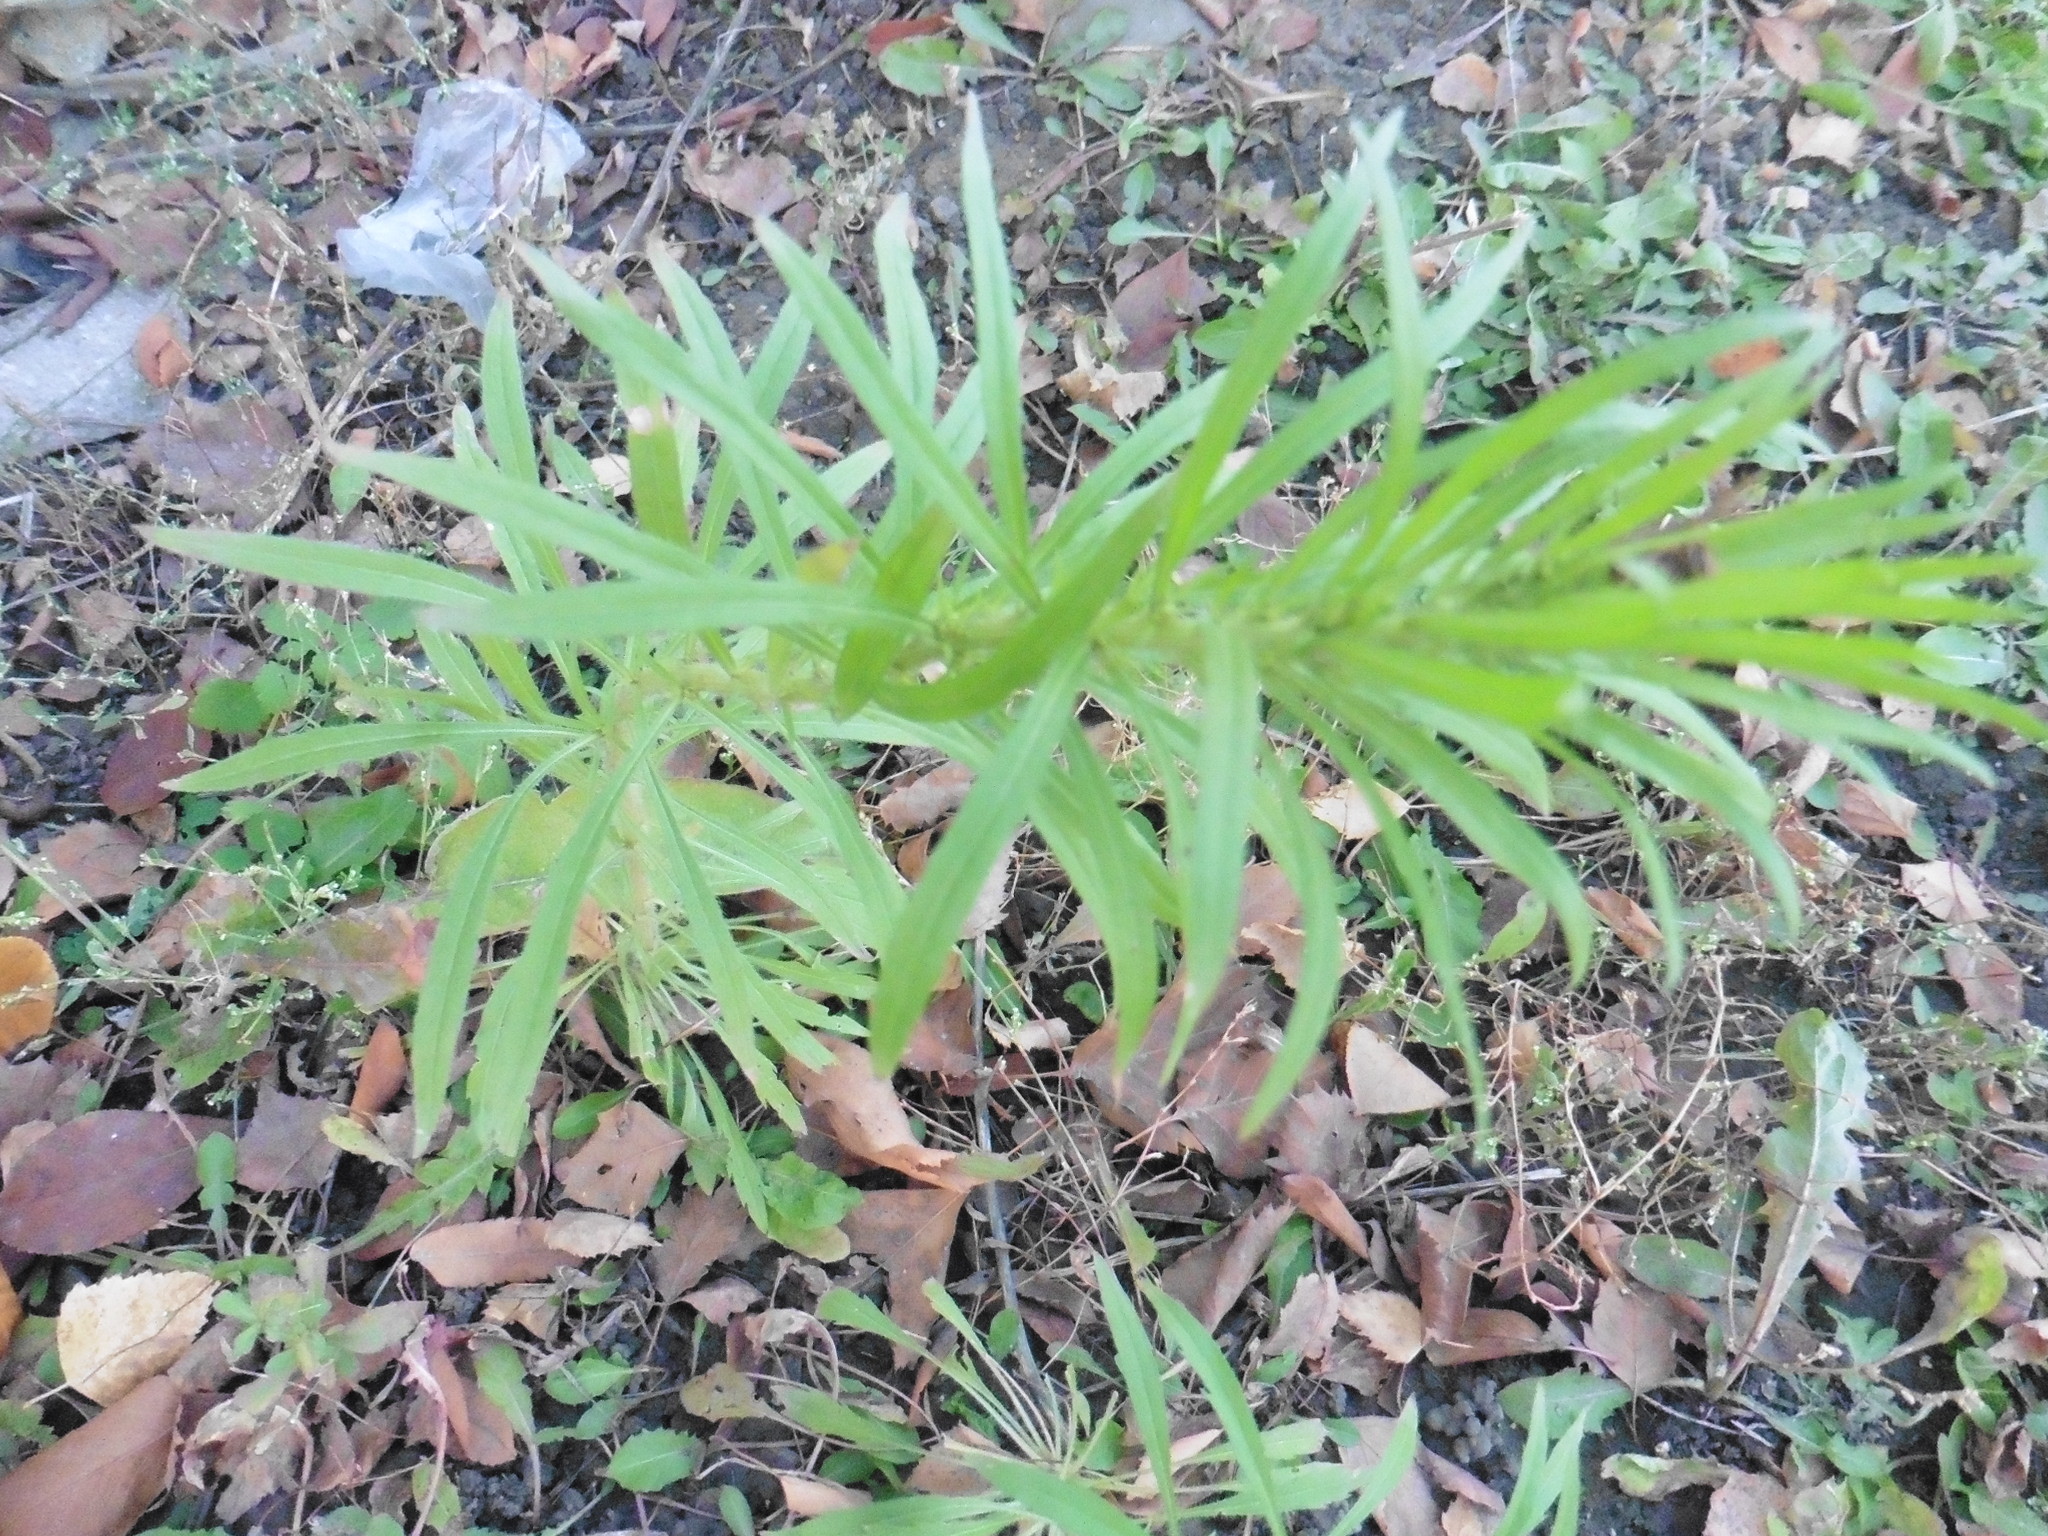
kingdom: Plantae
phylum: Tracheophyta
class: Magnoliopsida
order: Asterales
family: Asteraceae
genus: Erigeron
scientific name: Erigeron canadensis
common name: Canadian fleabane
